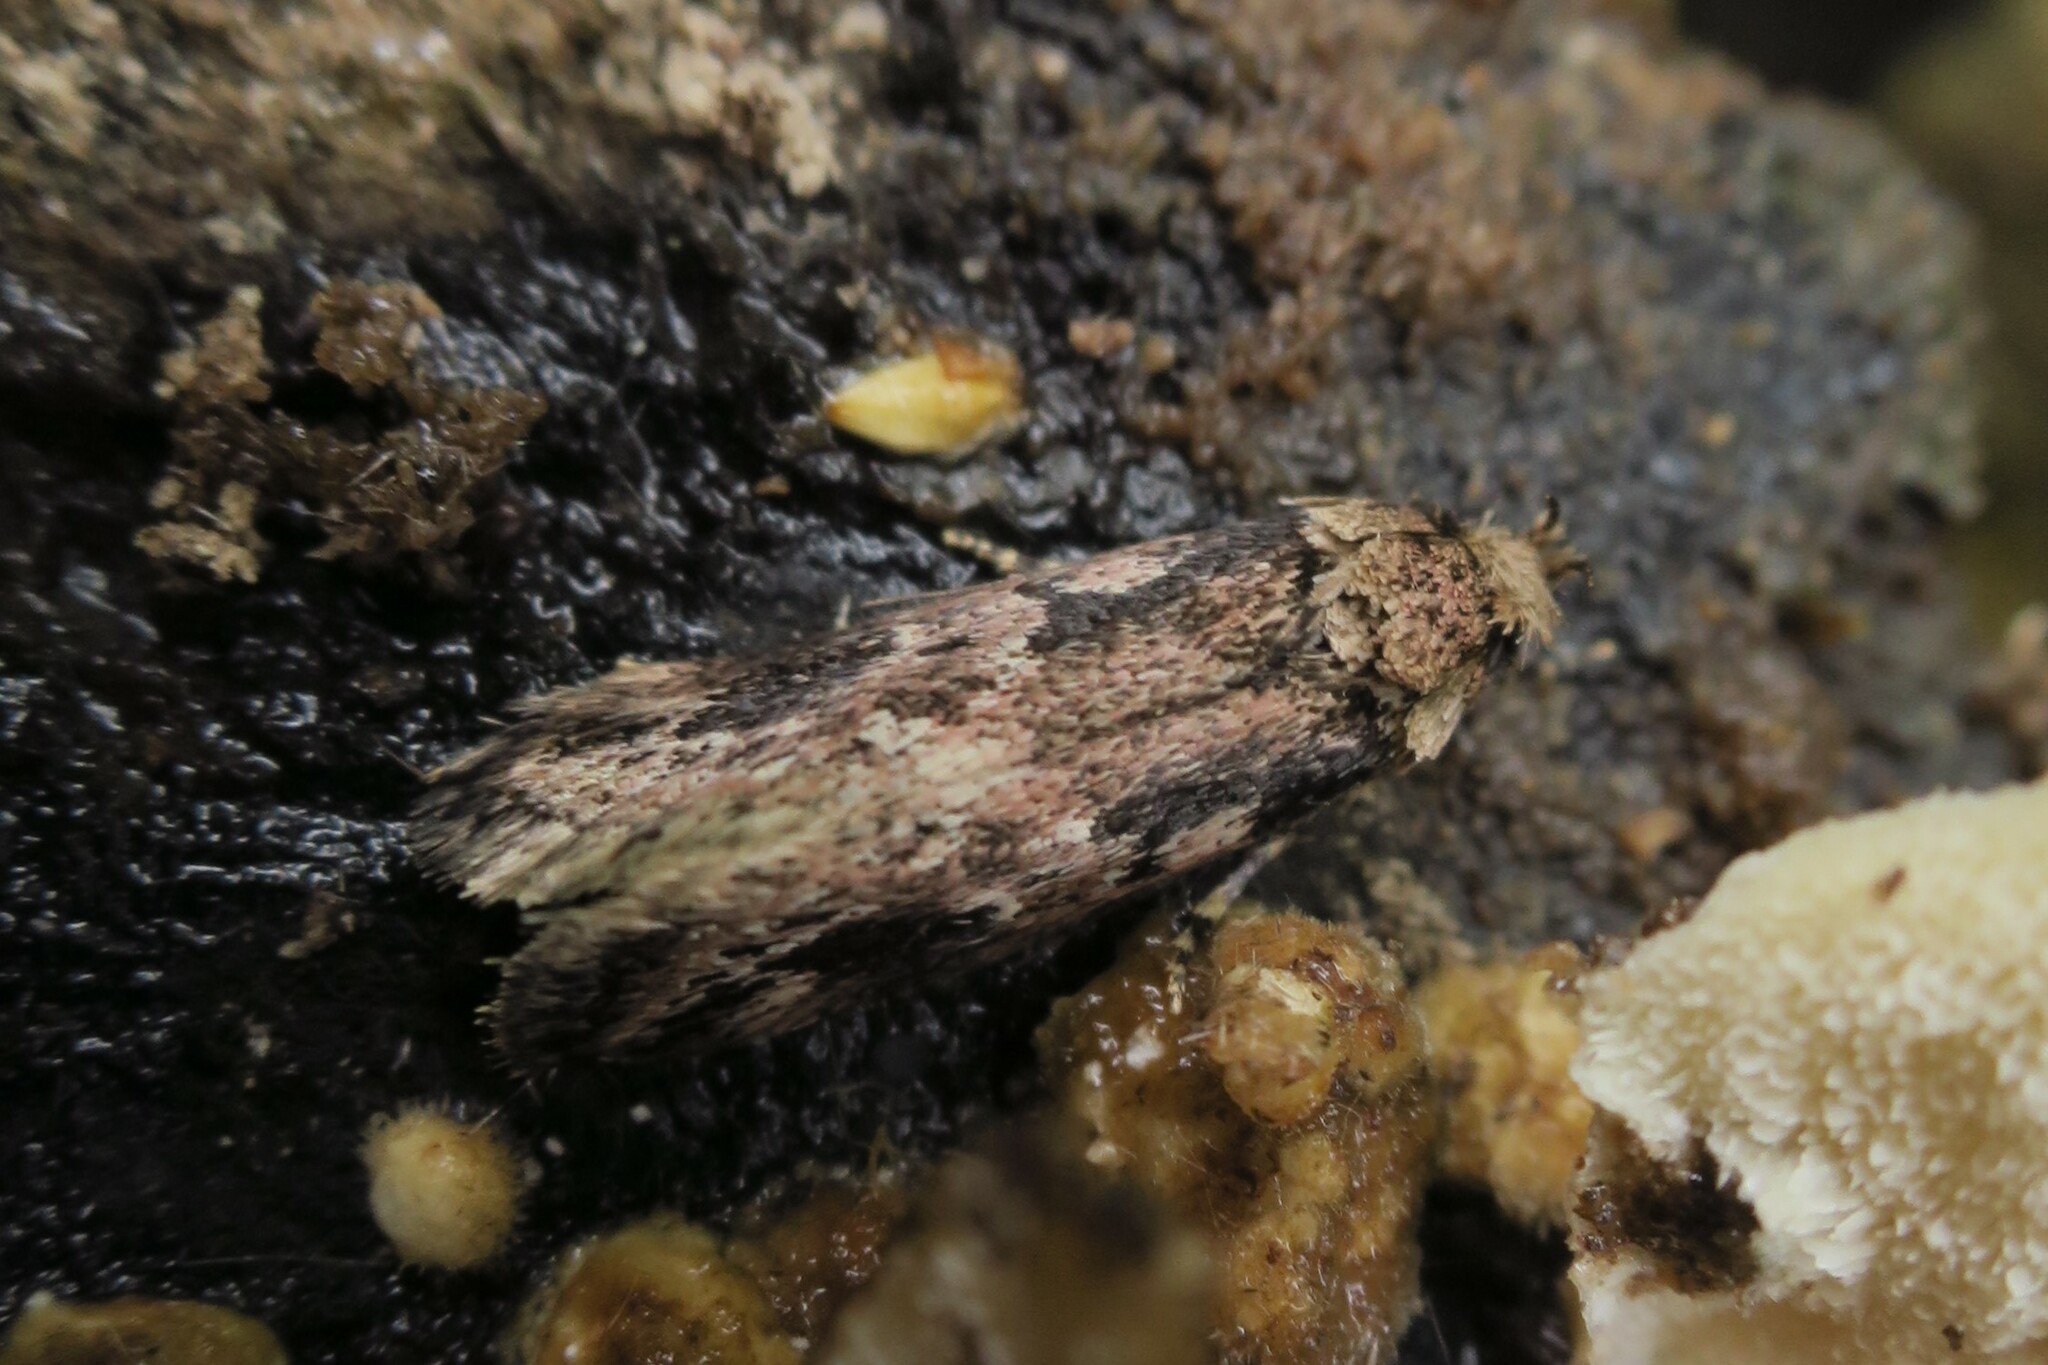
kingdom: Animalia
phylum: Arthropoda
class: Insecta
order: Lepidoptera
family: Oecophoridae
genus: Barea
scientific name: Barea consignatella
